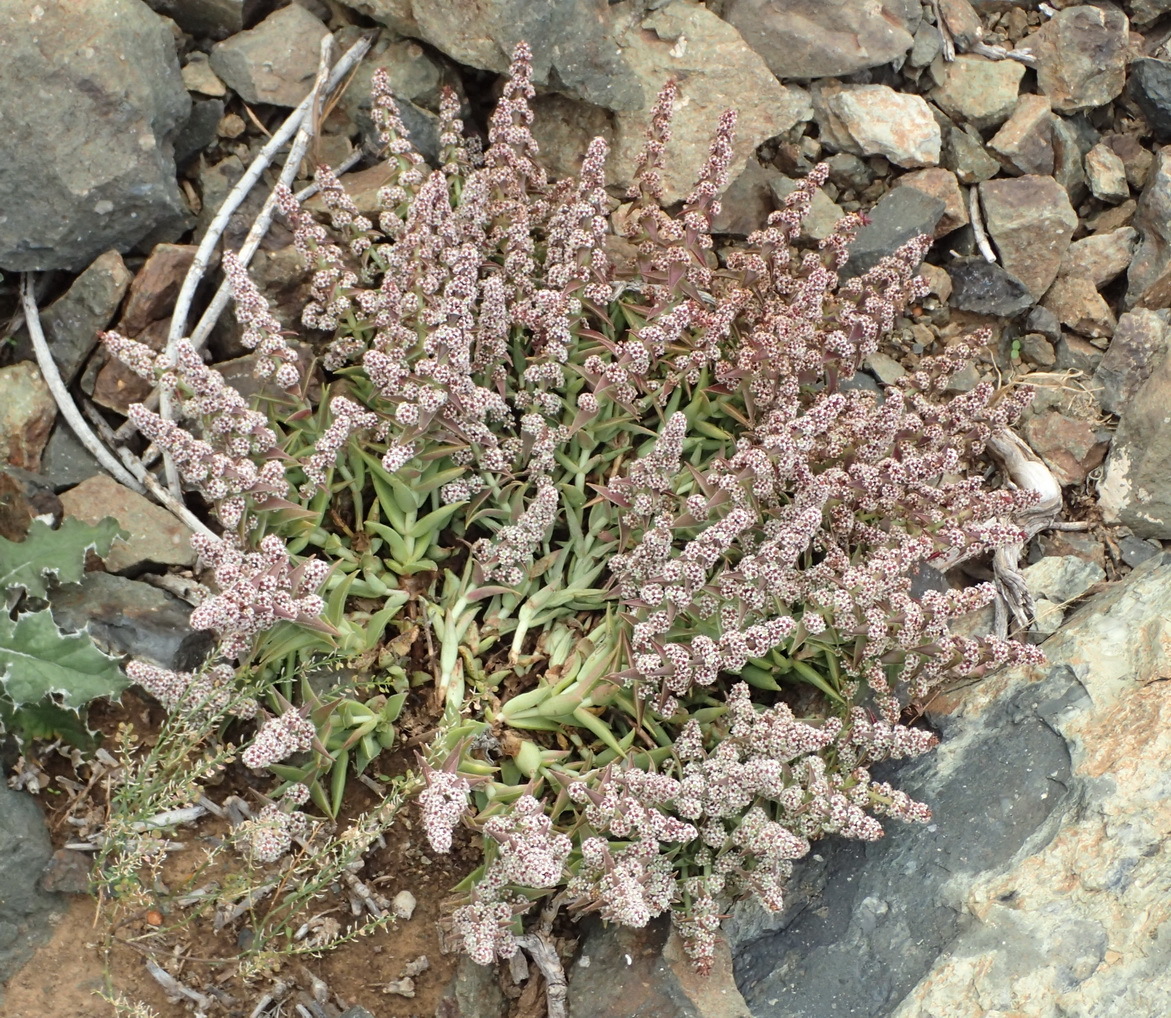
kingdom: Plantae
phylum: Tracheophyta
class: Magnoliopsida
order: Saxifragales
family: Crassulaceae
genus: Crassula
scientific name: Crassula capitella
